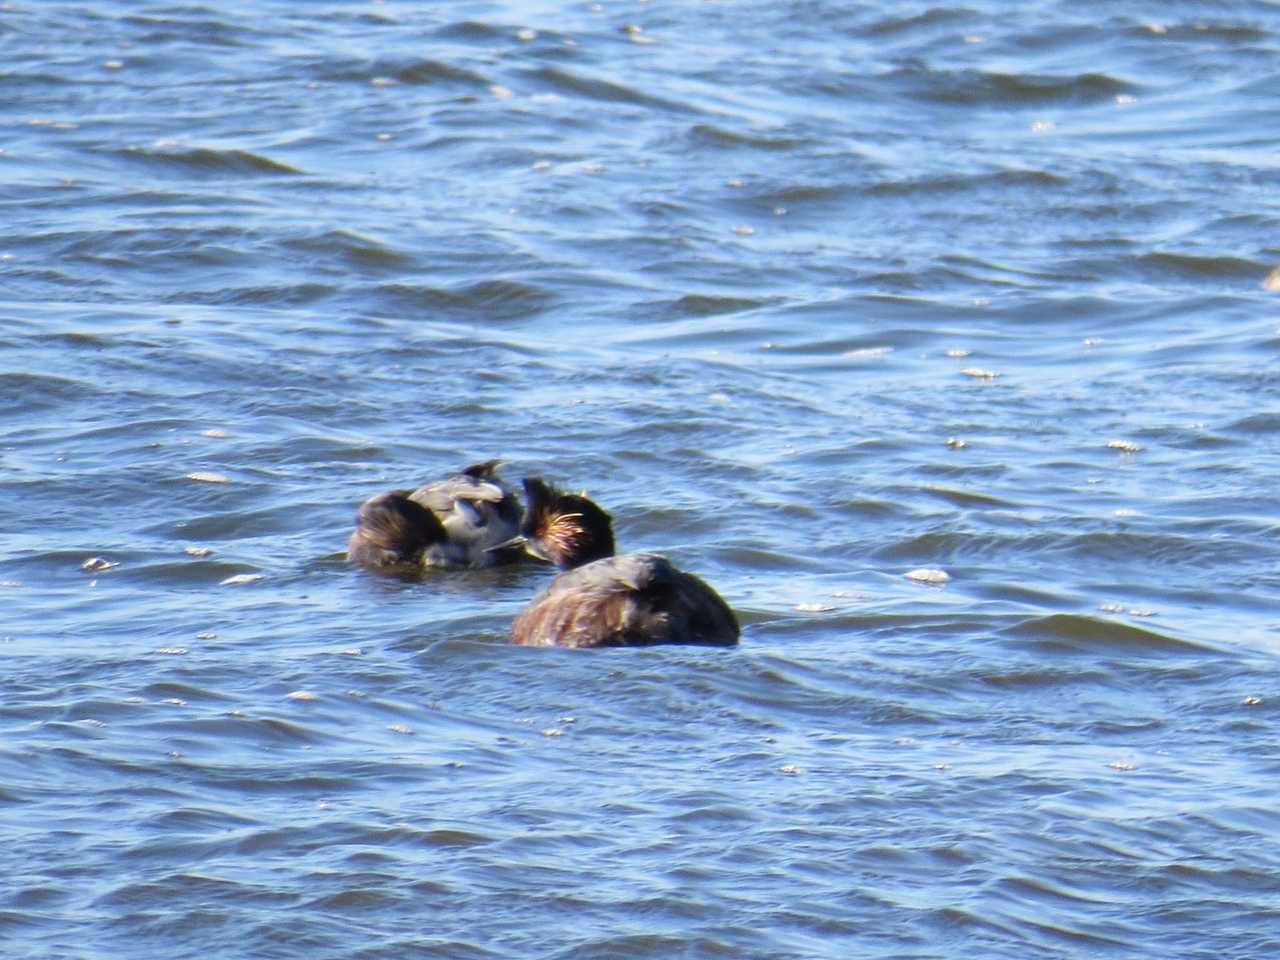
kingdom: Animalia
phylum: Chordata
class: Aves
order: Podicipediformes
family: Podicipedidae
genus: Podiceps
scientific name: Podiceps nigricollis
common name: Black-necked grebe
